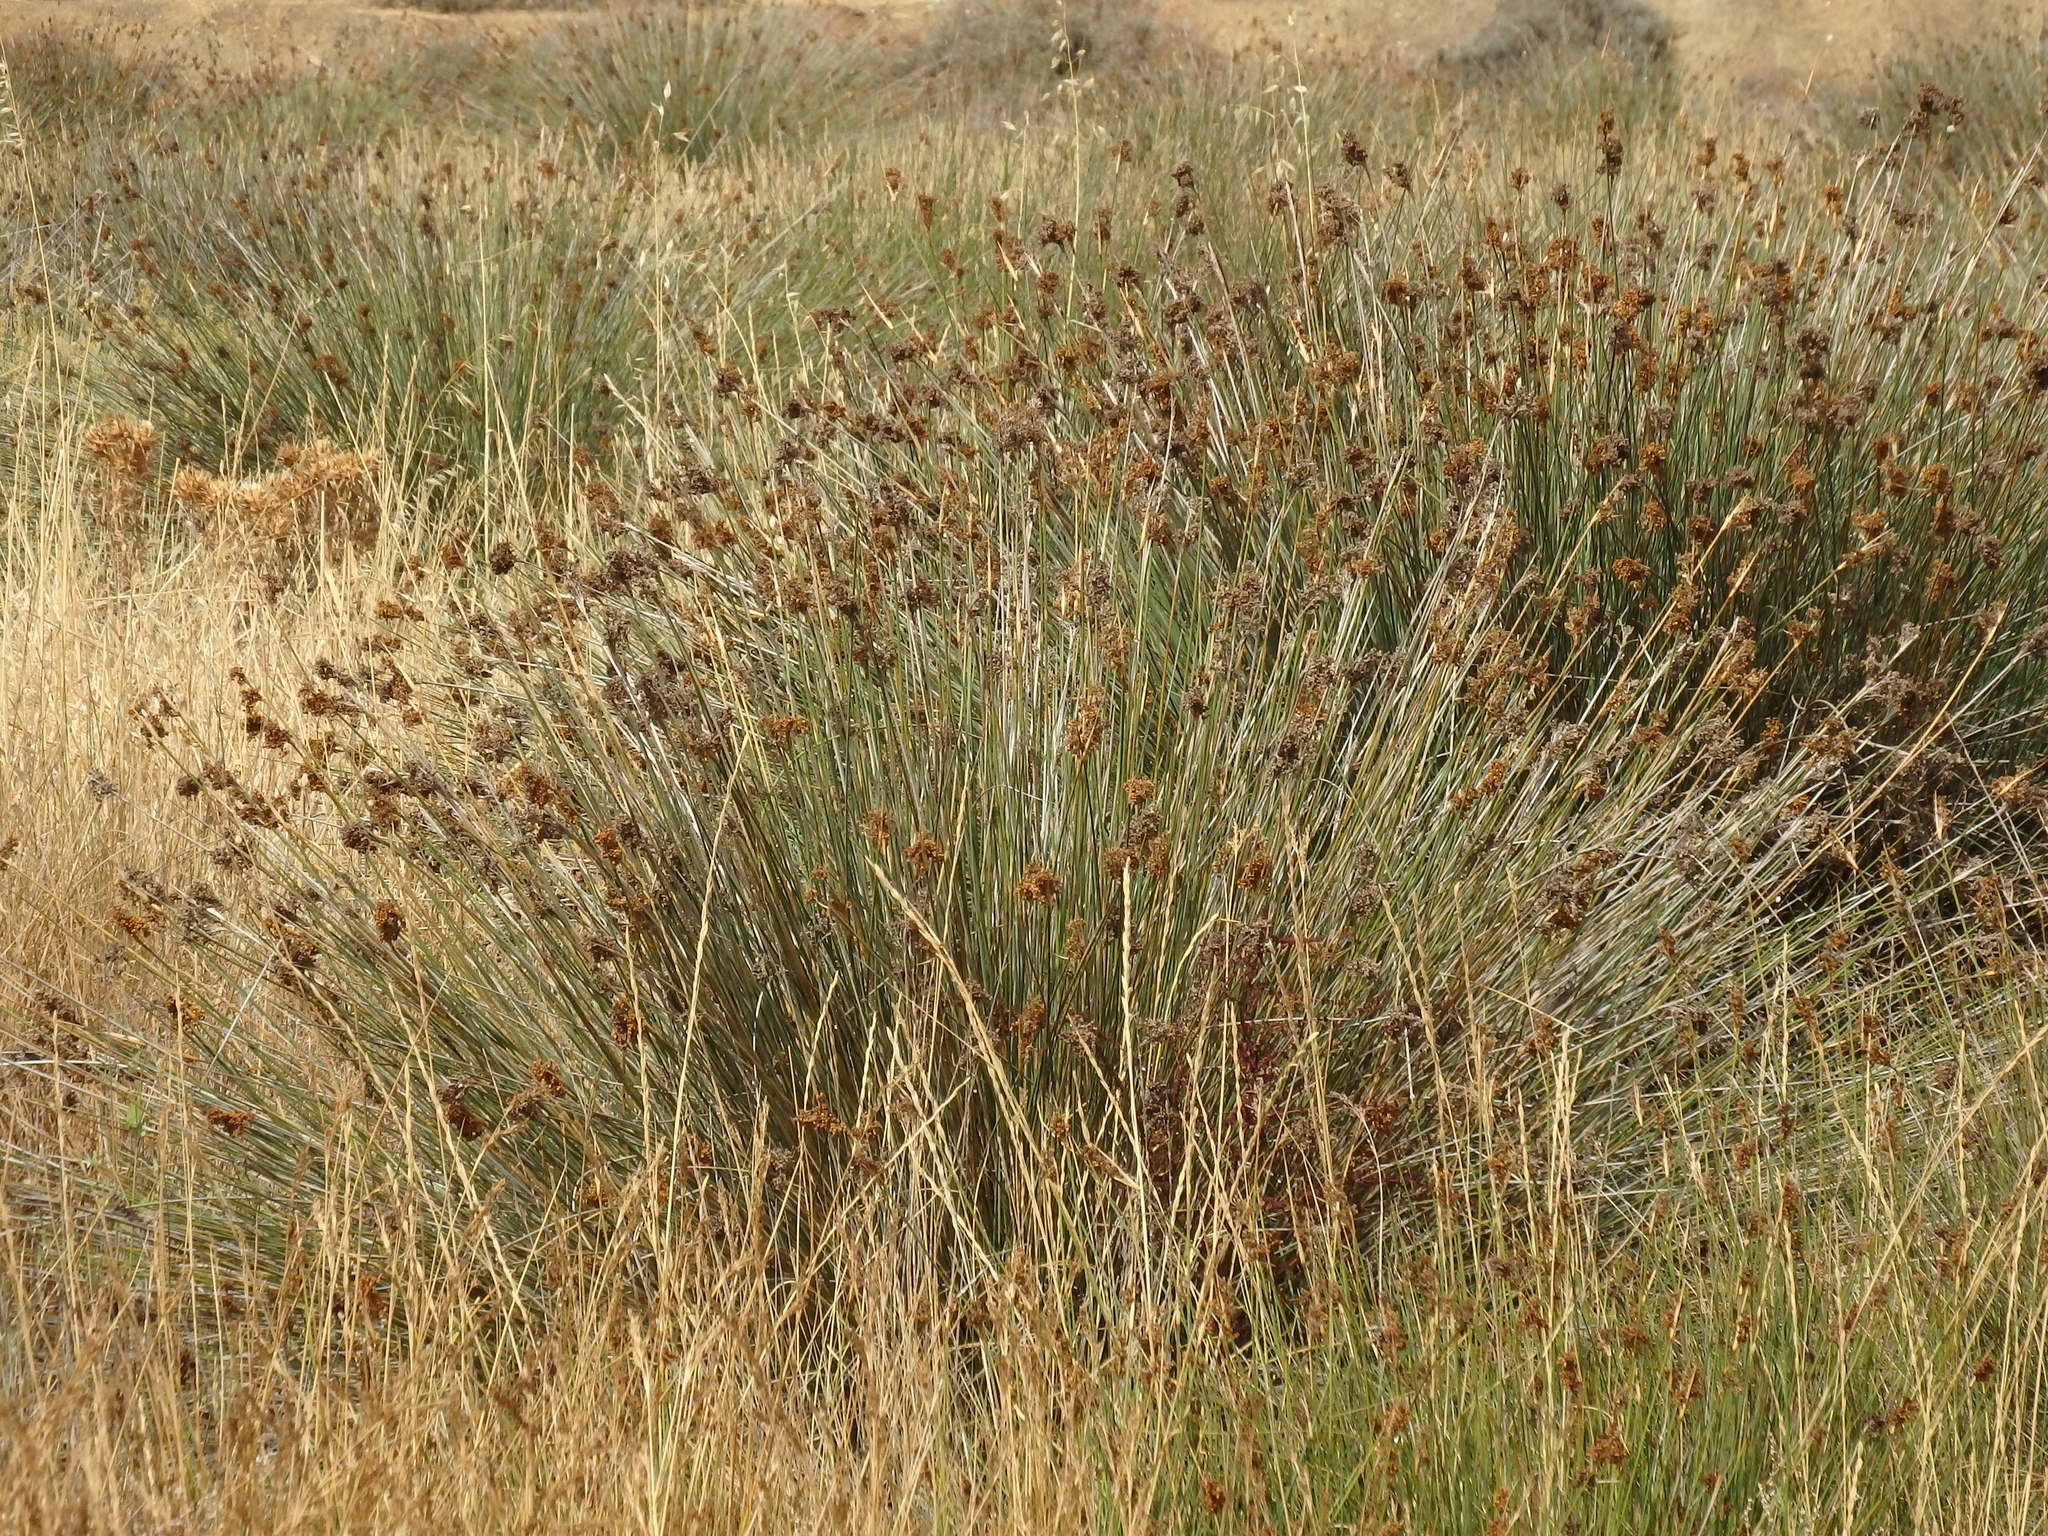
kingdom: Plantae
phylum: Tracheophyta
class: Liliopsida
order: Poales
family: Juncaceae
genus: Juncus
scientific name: Juncus acutus
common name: Sharp rush
